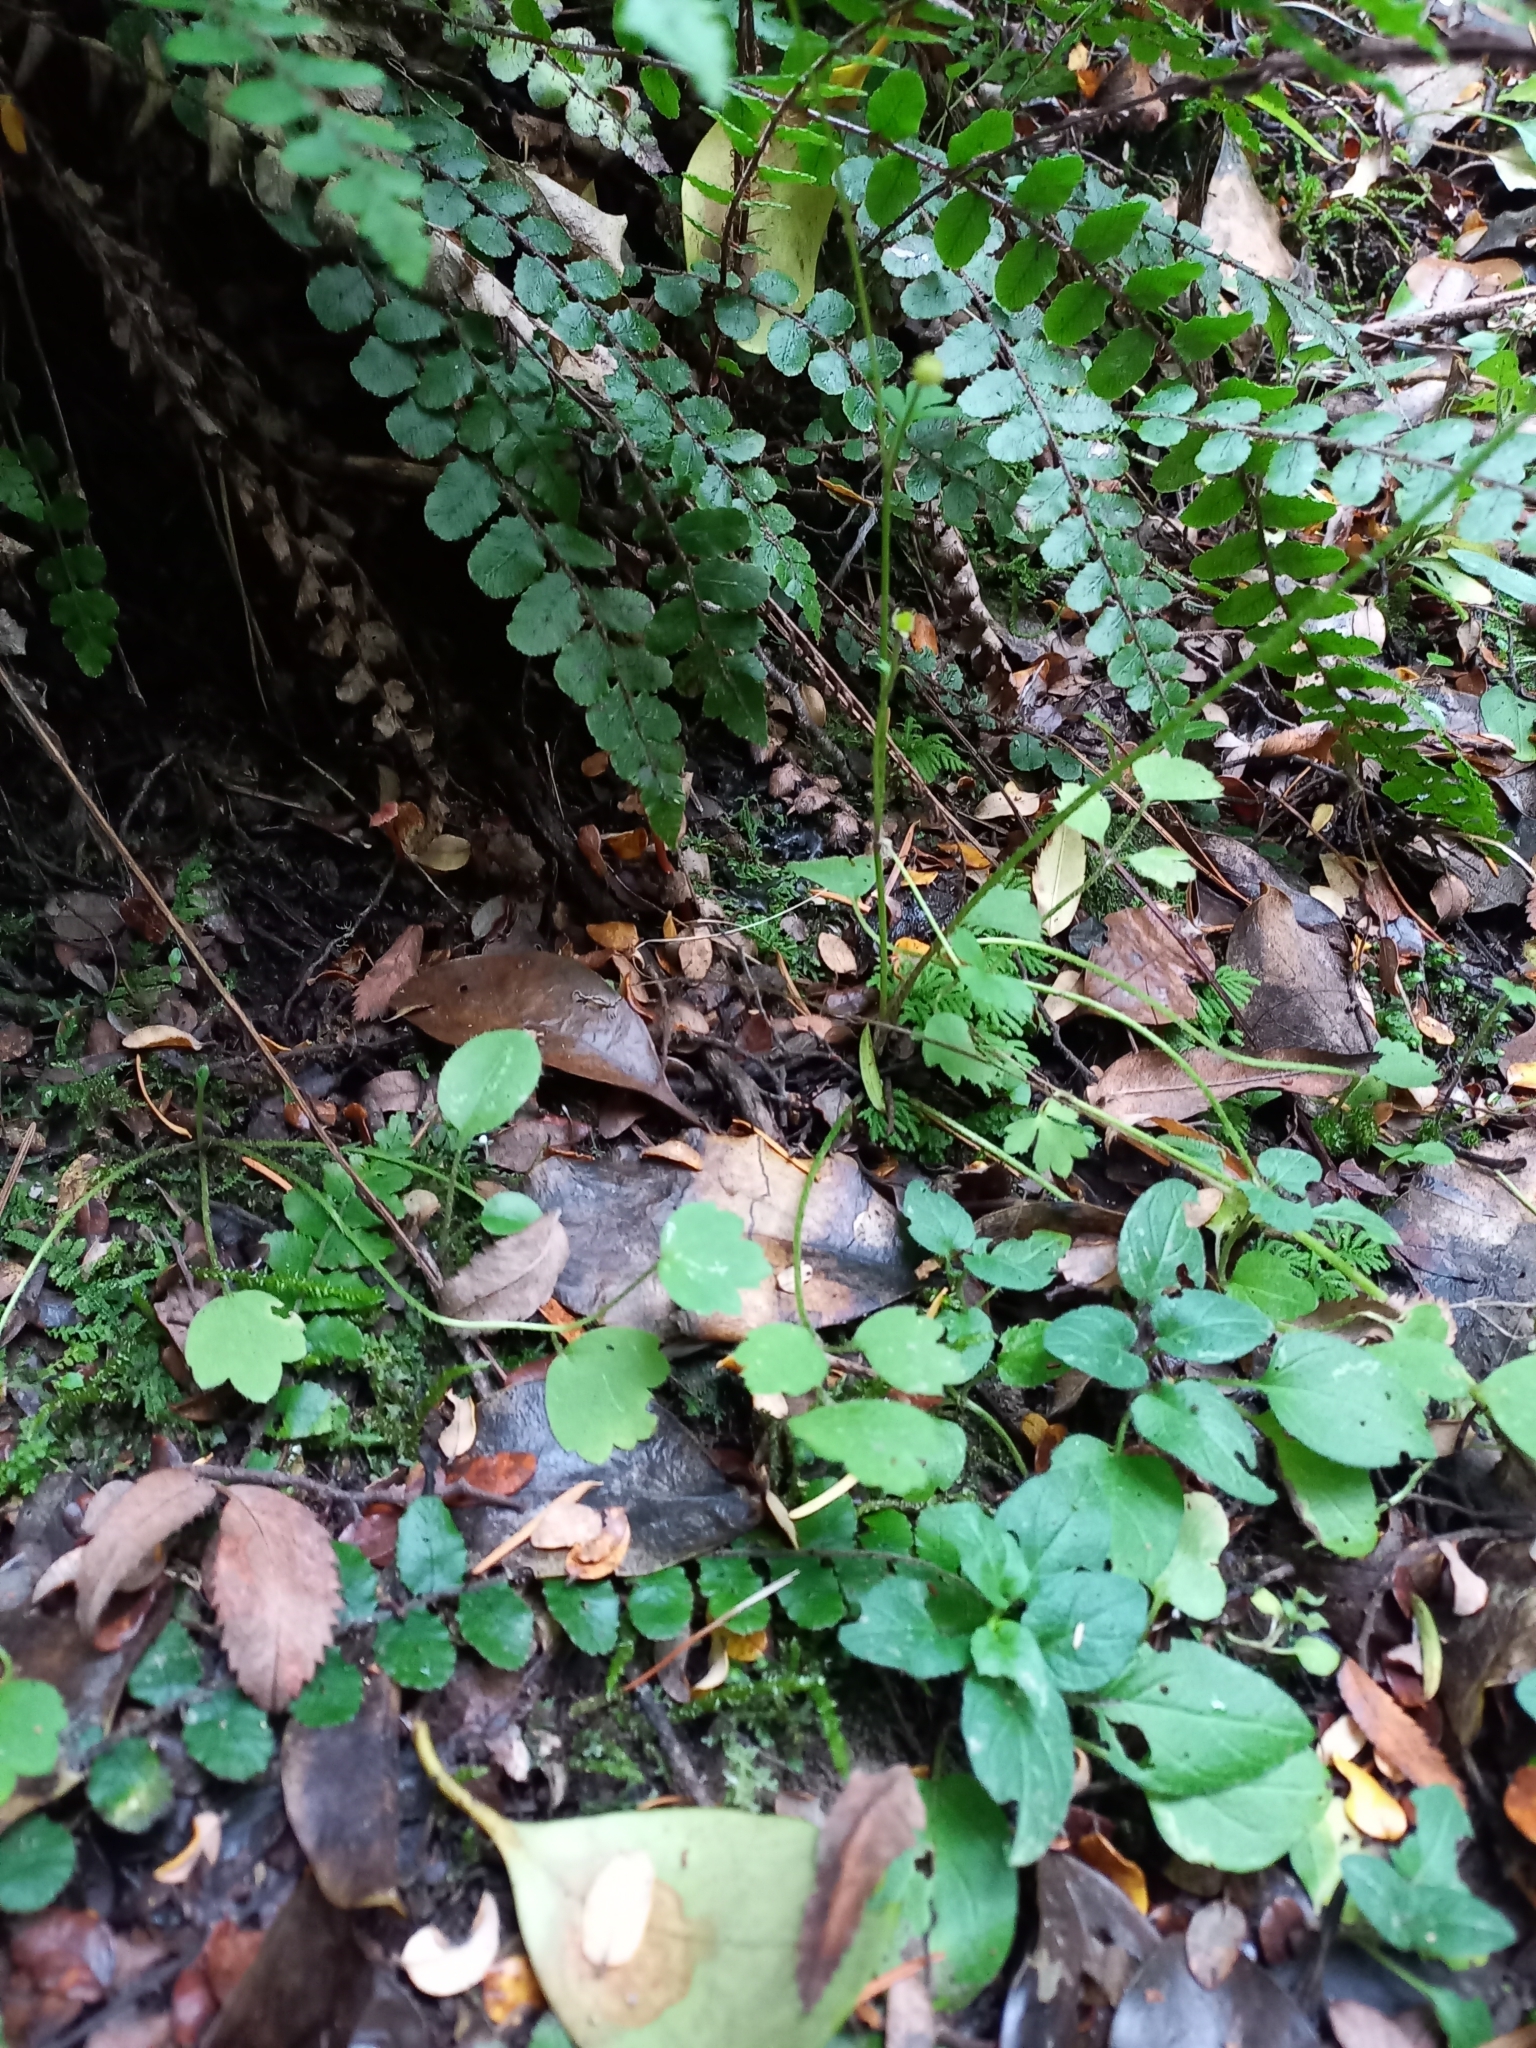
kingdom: Plantae
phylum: Tracheophyta
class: Magnoliopsida
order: Ranunculales
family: Ranunculaceae
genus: Ranunculus
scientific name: Ranunculus reflexus
